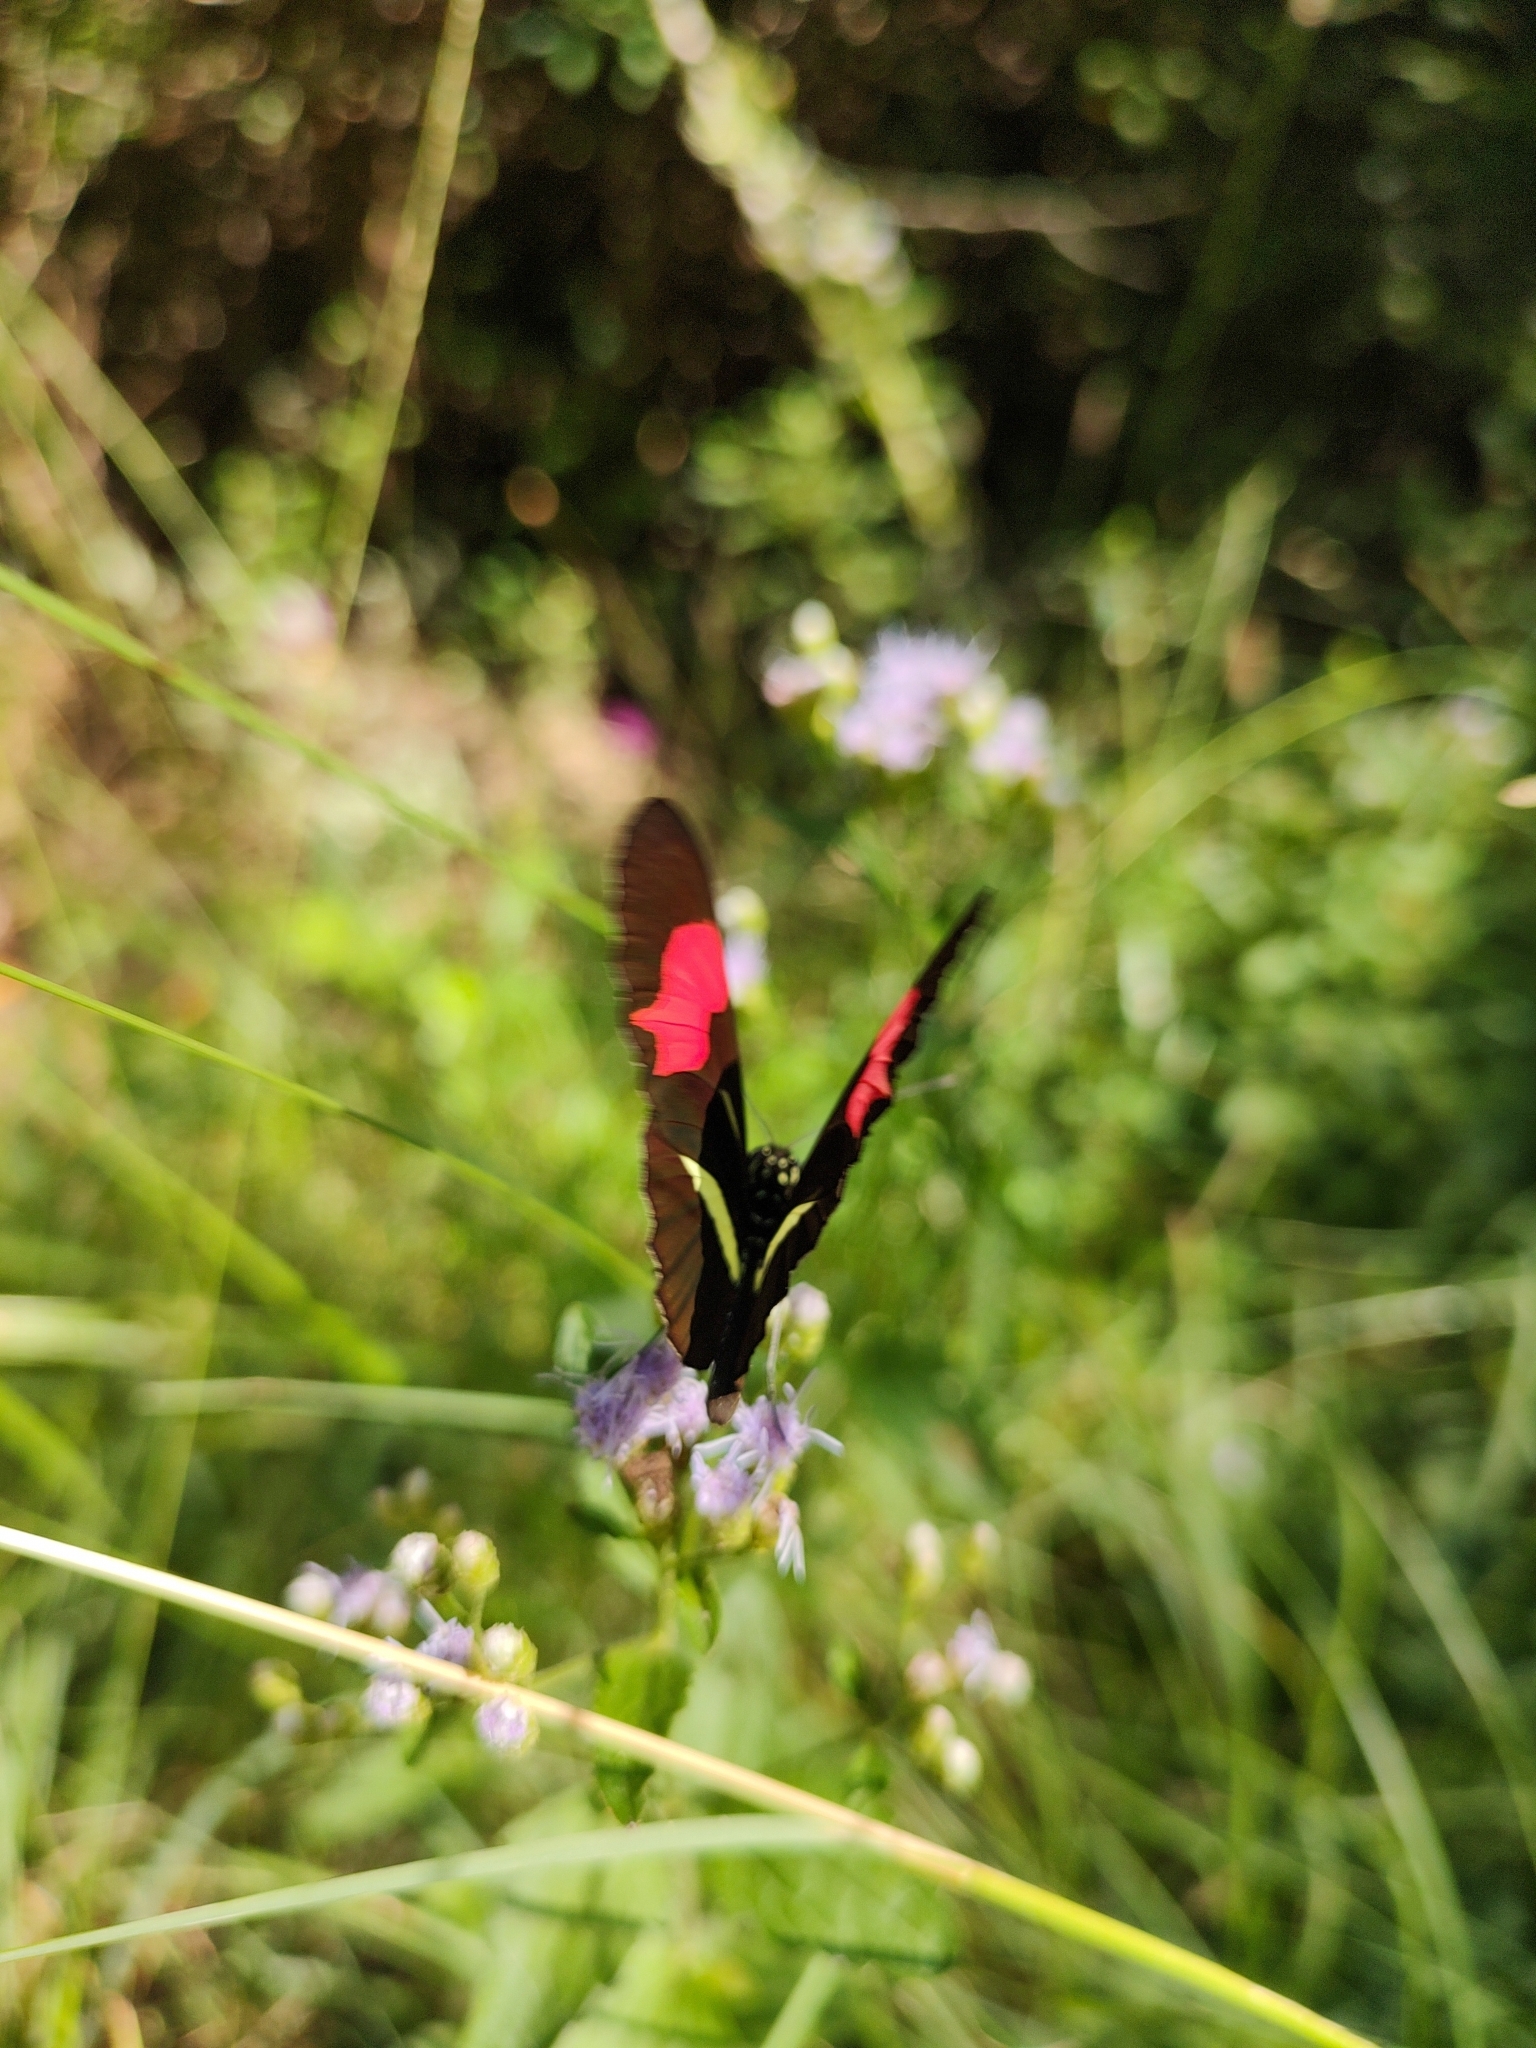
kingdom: Animalia
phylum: Arthropoda
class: Insecta
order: Lepidoptera
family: Nymphalidae
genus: Heliconius
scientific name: Heliconius erato
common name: Common patch longwing
